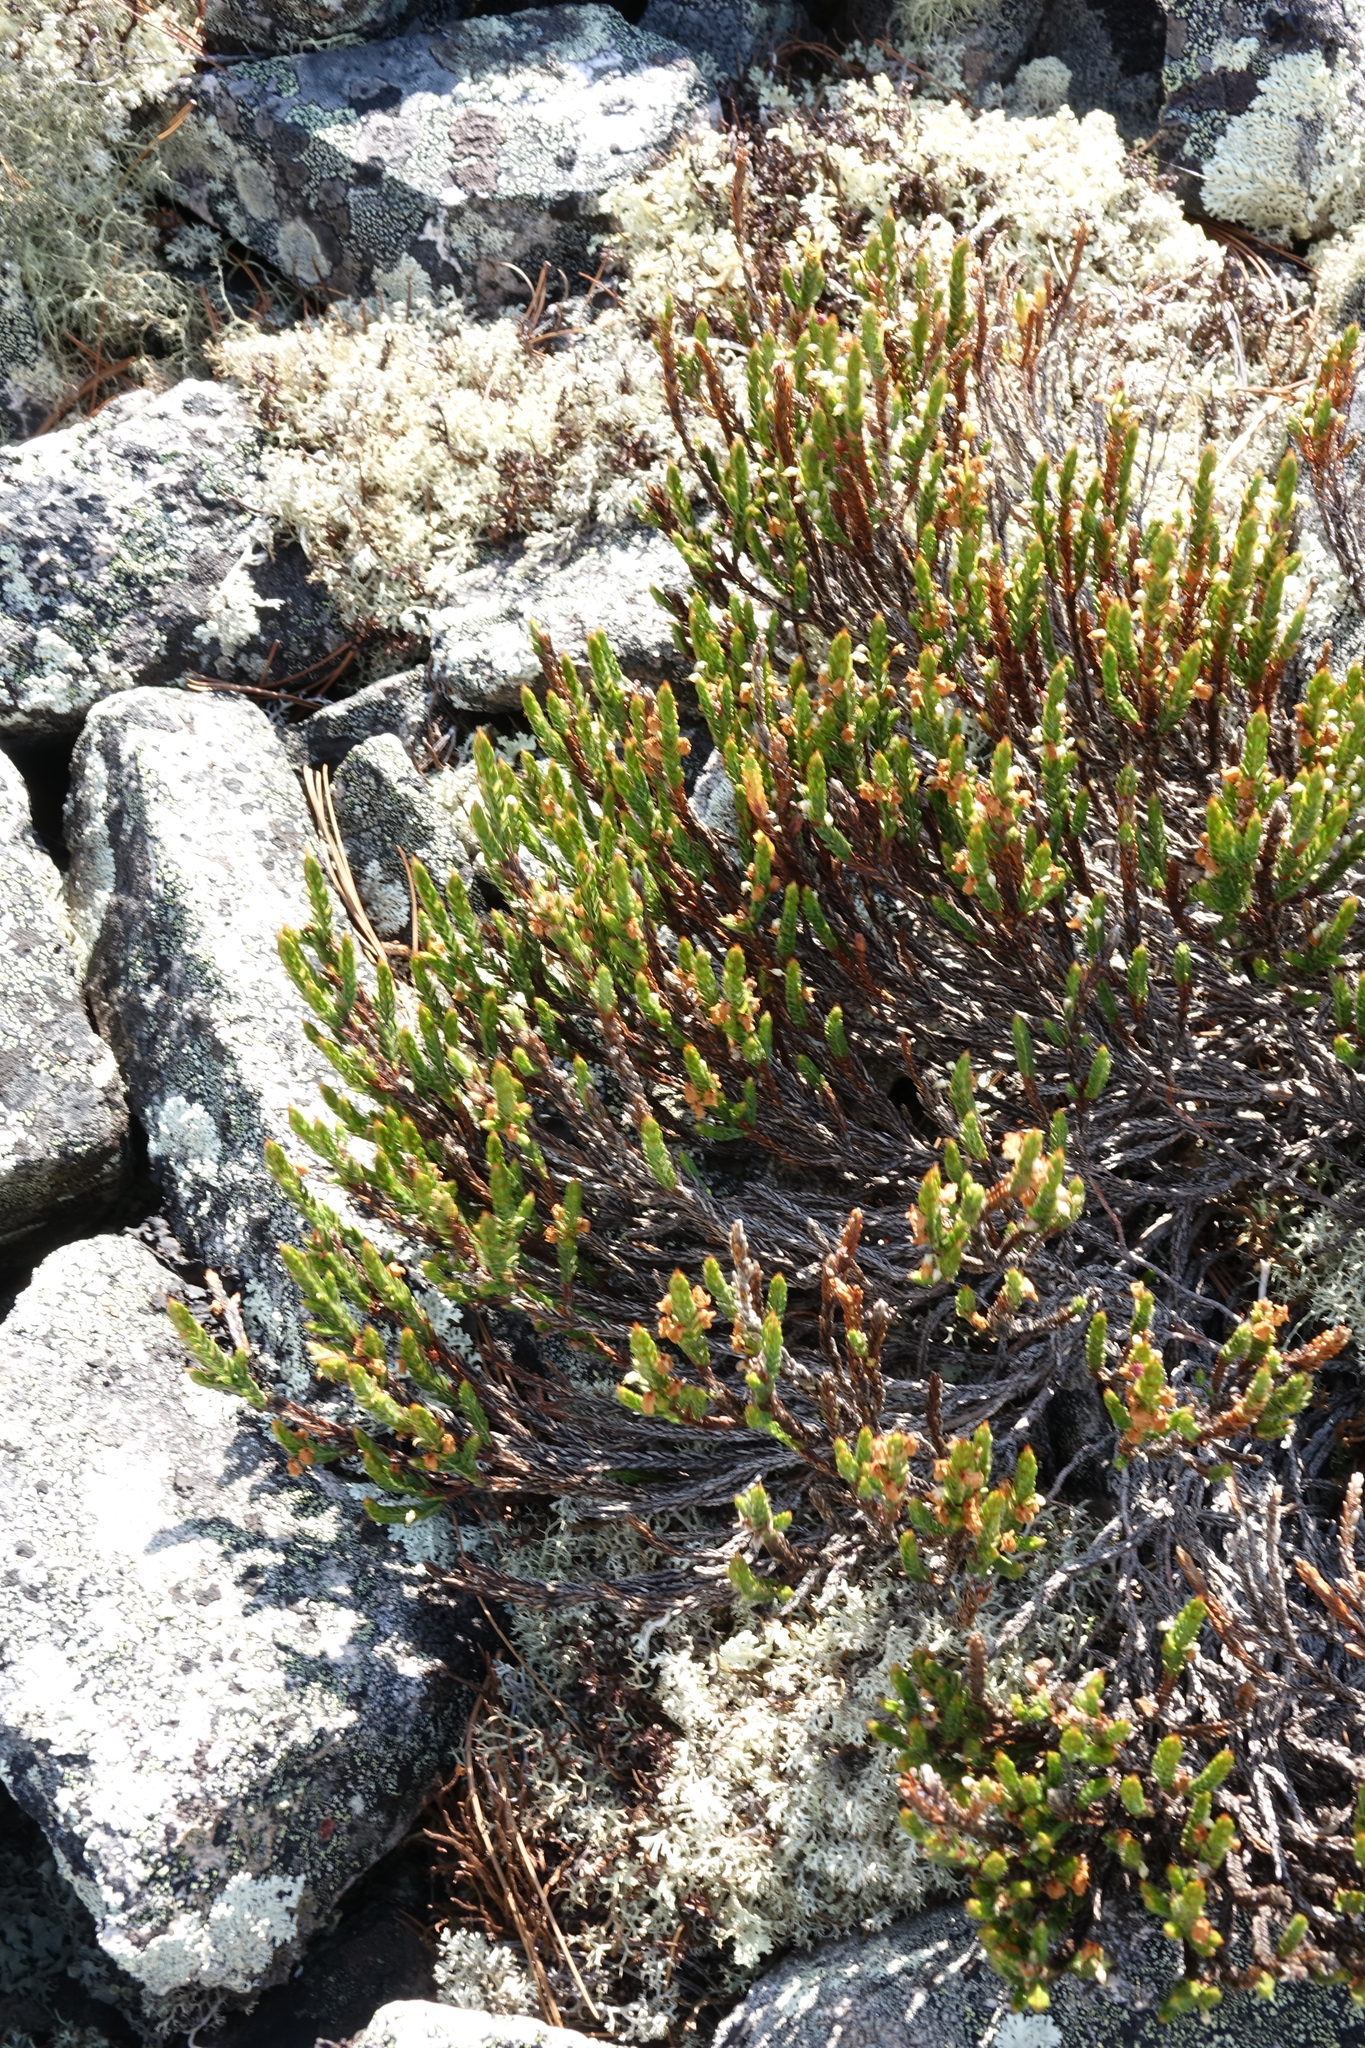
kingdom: Plantae
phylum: Tracheophyta
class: Magnoliopsida
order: Ericales
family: Ericaceae
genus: Cassiope
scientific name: Cassiope tetragona
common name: Arctic bell heather
